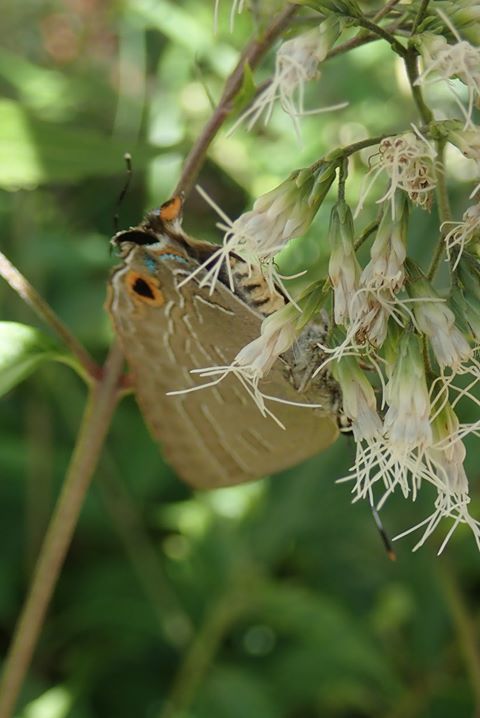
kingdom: Animalia
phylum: Arthropoda
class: Insecta
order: Lepidoptera
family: Lycaenidae
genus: Deudorix
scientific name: Deudorix epijarbas
